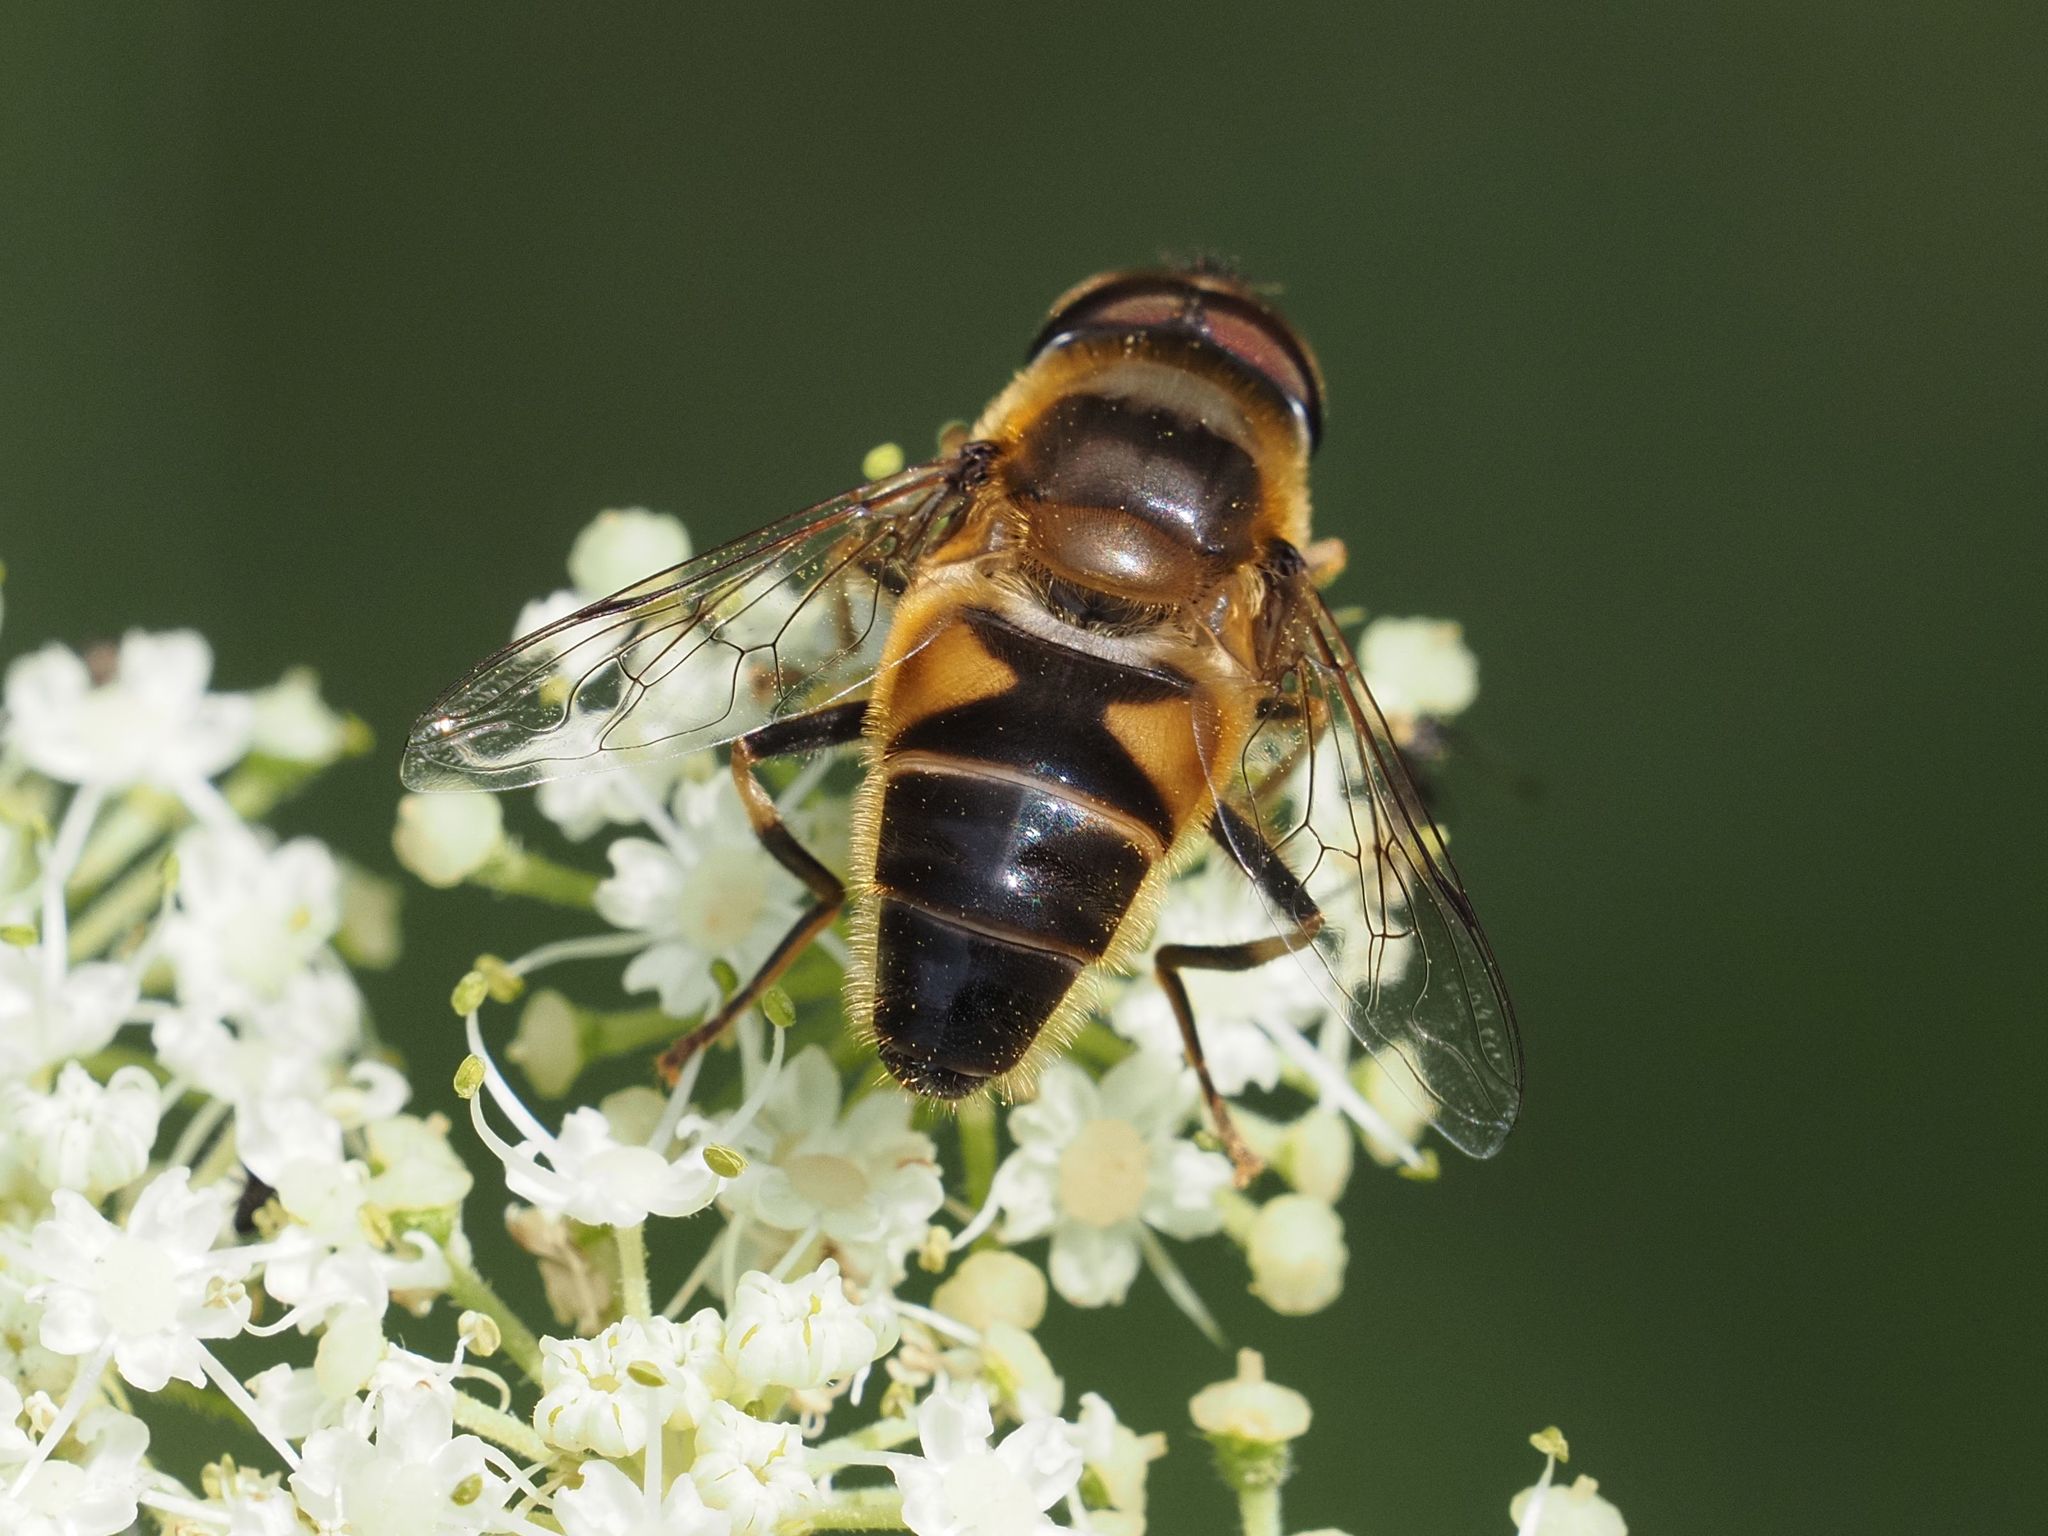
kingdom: Animalia
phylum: Arthropoda
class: Insecta
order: Diptera
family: Syrphidae
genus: Eristalis
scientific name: Eristalis pertinax
